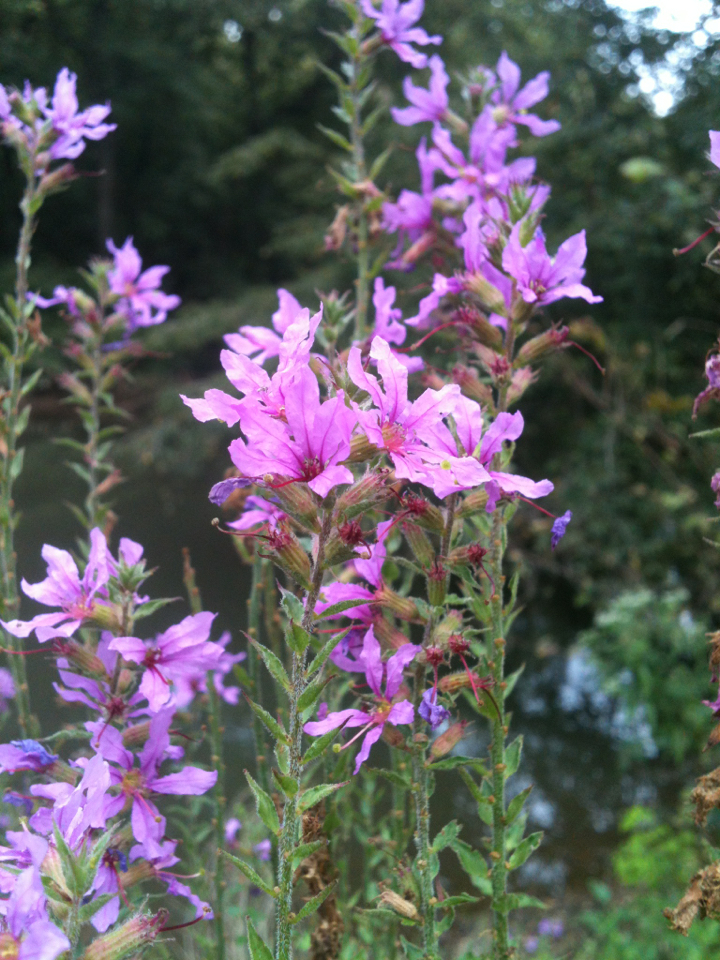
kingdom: Plantae
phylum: Tracheophyta
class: Magnoliopsida
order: Myrtales
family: Lythraceae
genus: Lythrum
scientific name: Lythrum salicaria
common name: Purple loosestrife
